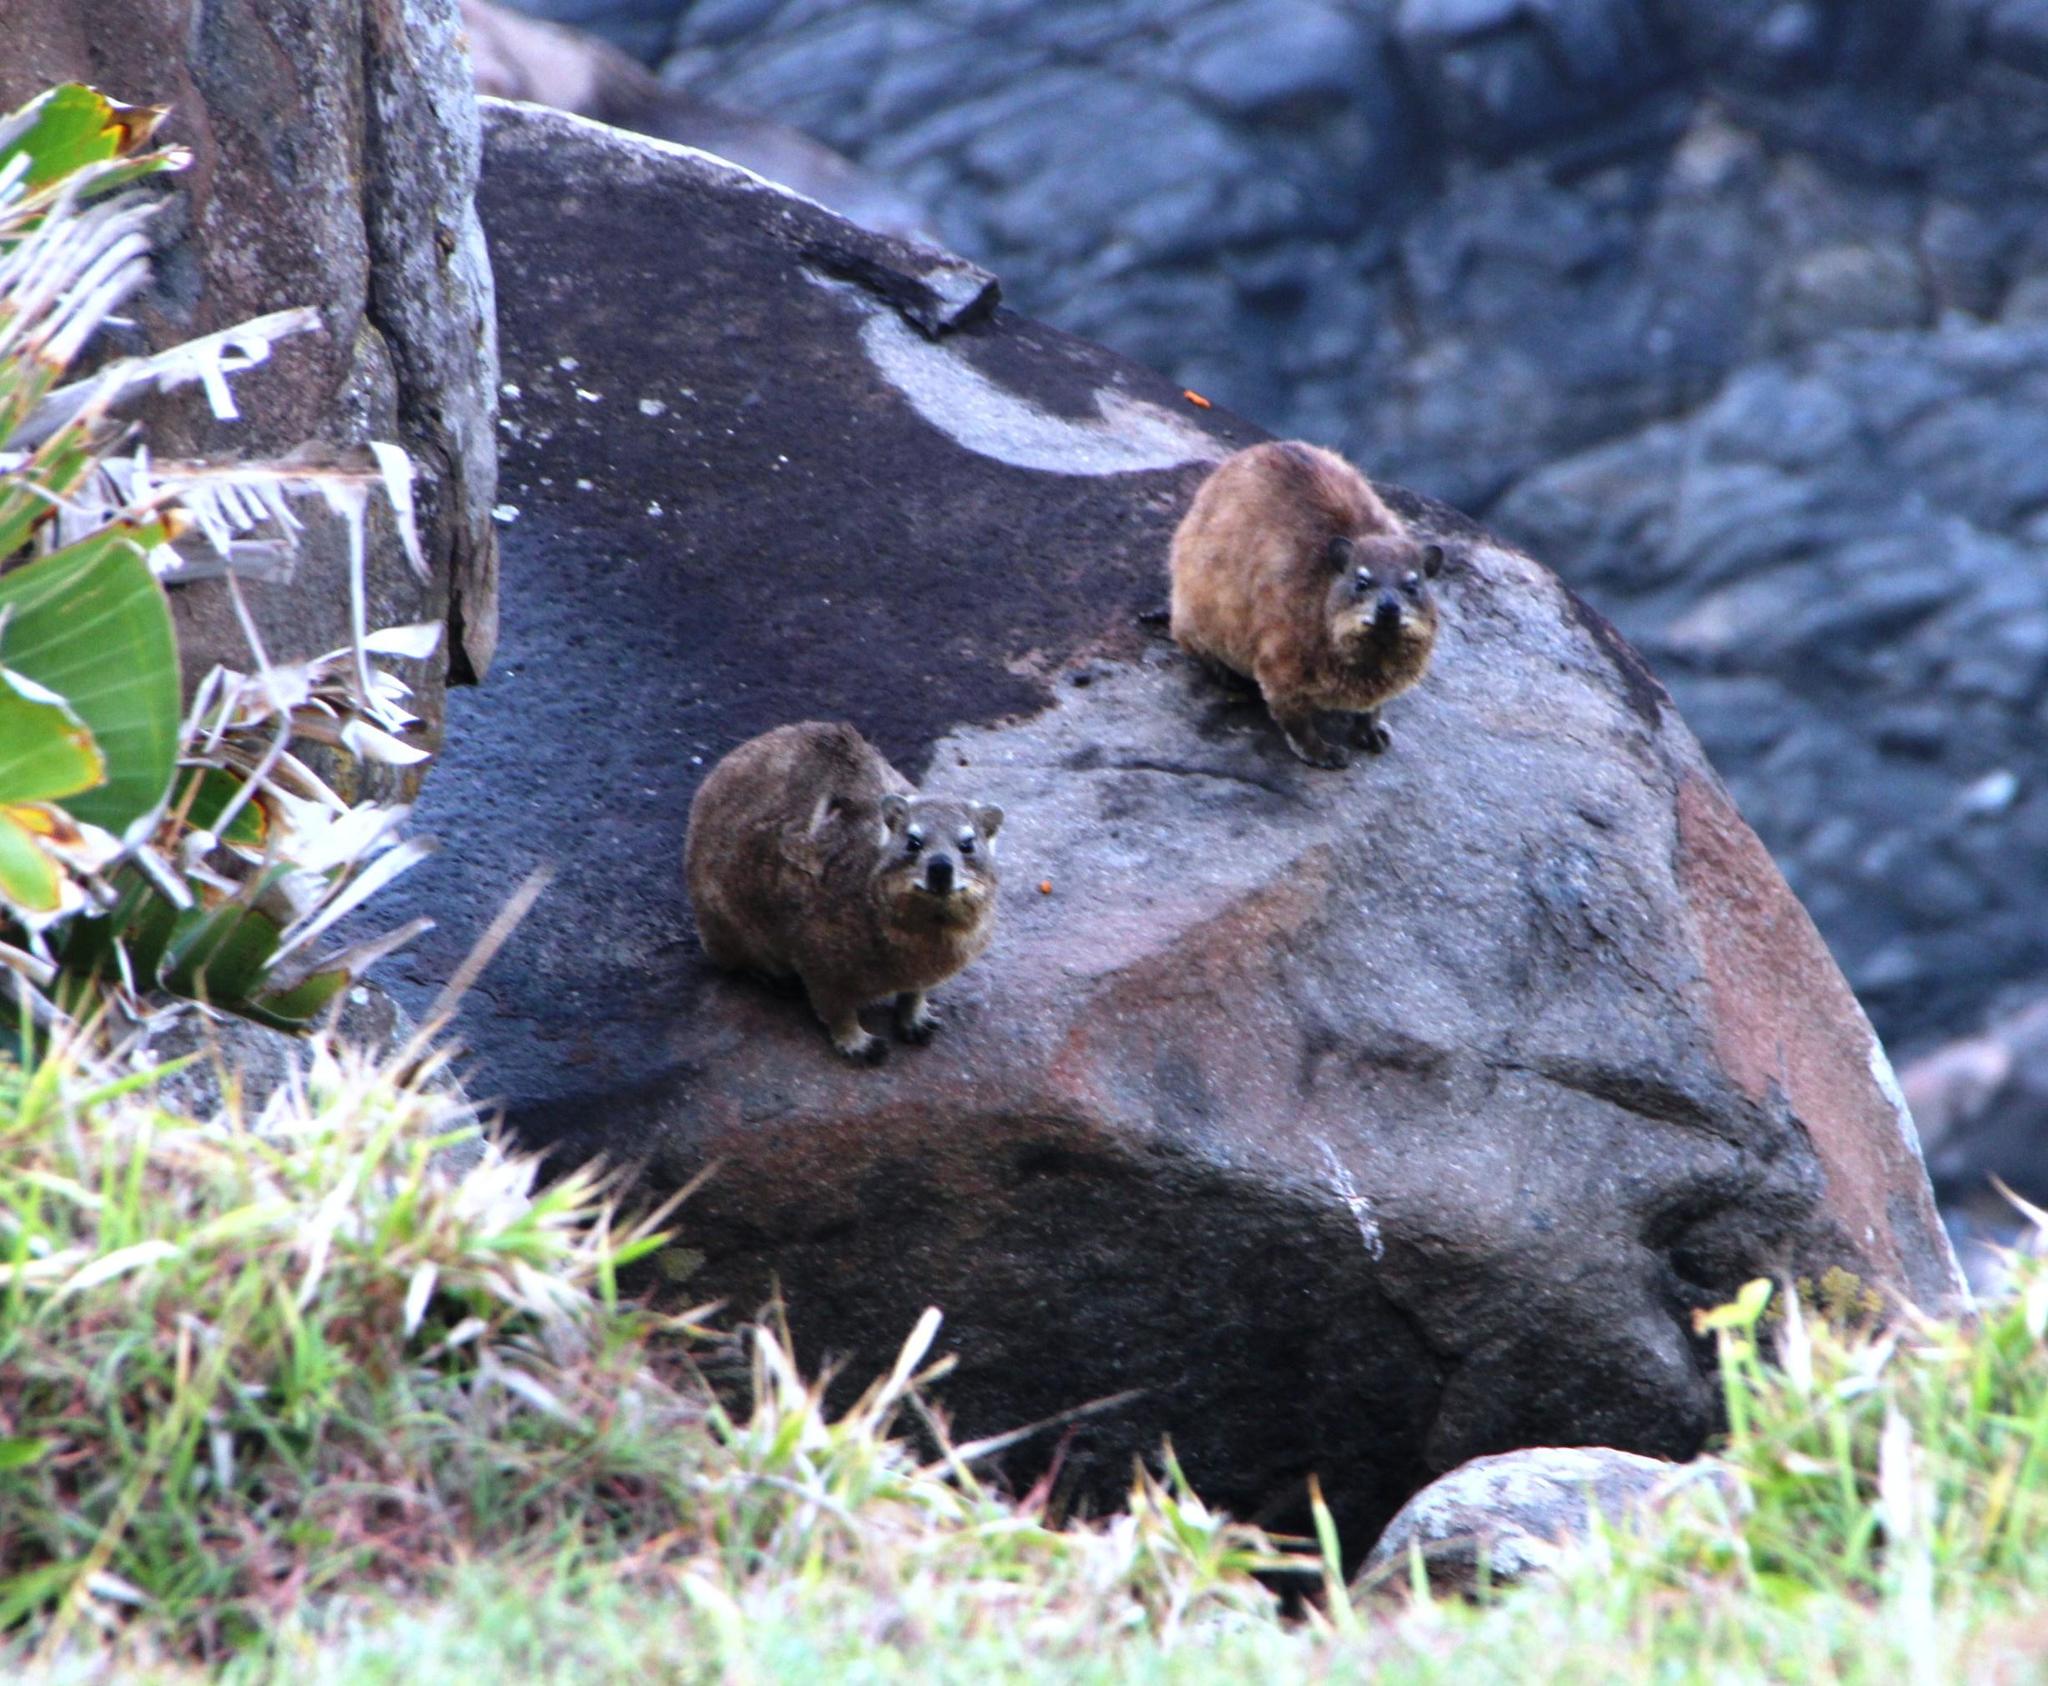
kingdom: Animalia
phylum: Chordata
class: Mammalia
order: Hyracoidea
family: Procaviidae
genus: Procavia
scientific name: Procavia capensis
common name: Rock hyrax
